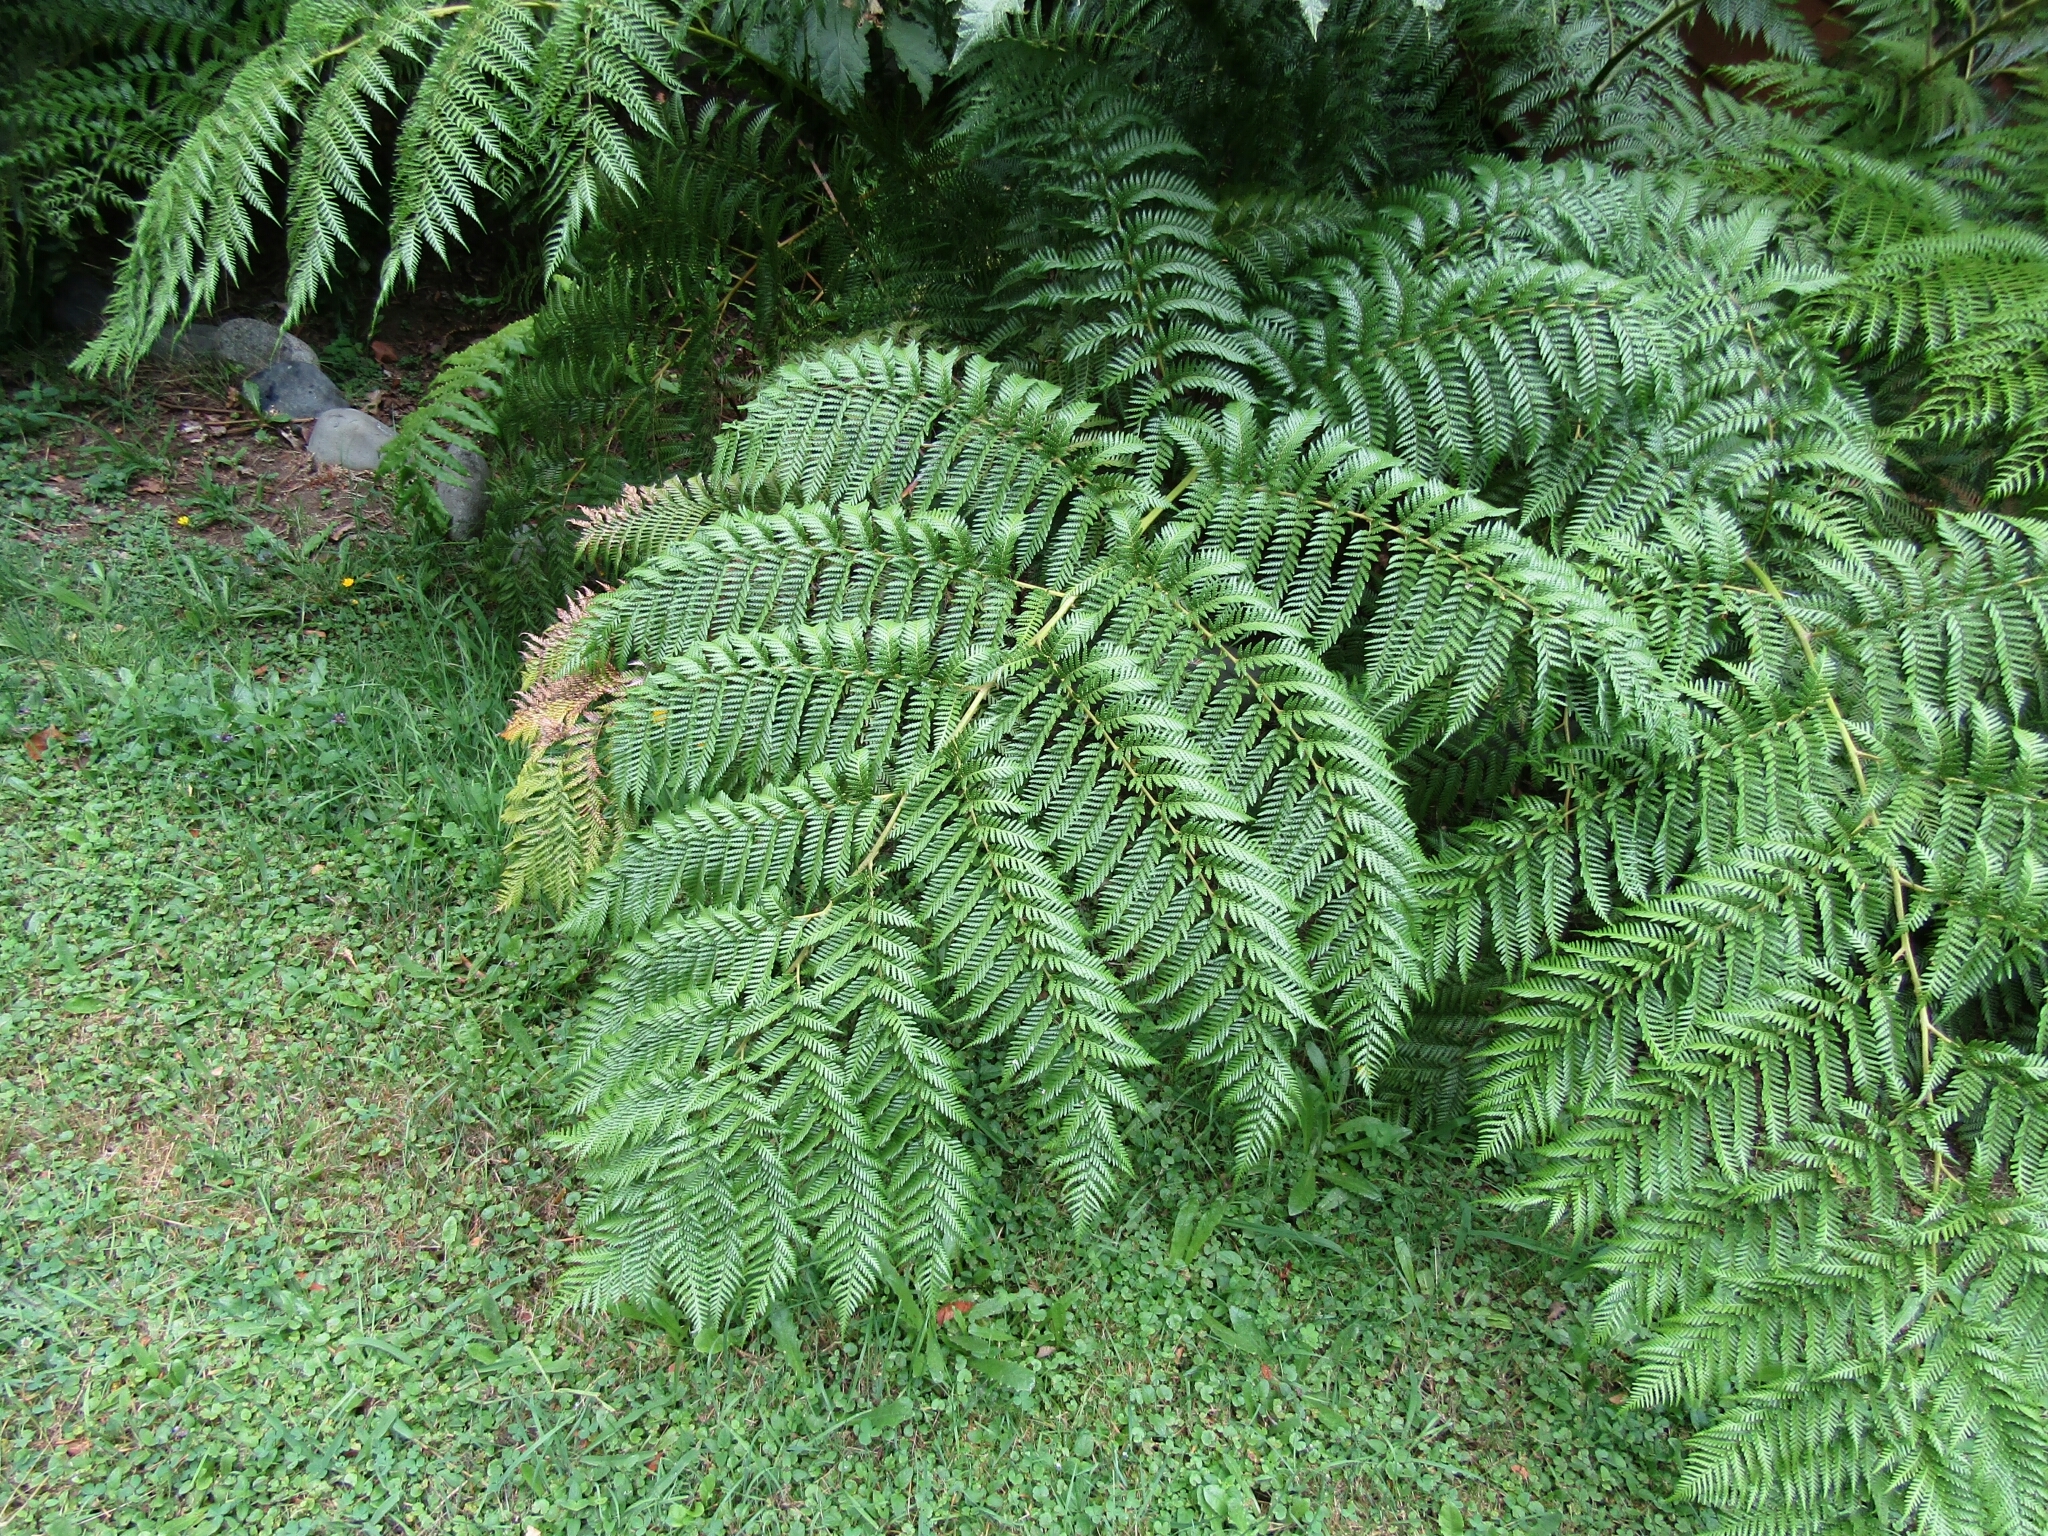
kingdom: Plantae
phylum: Tracheophyta
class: Polypodiopsida
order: Cyatheales
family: Dicksoniaceae
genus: Lophosoria
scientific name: Lophosoria quadripinnata
